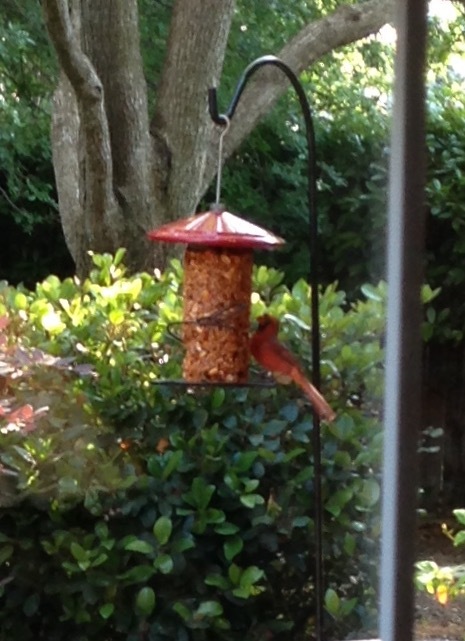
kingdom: Animalia
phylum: Chordata
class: Aves
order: Passeriformes
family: Cardinalidae
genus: Cardinalis
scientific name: Cardinalis cardinalis
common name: Northern cardinal
